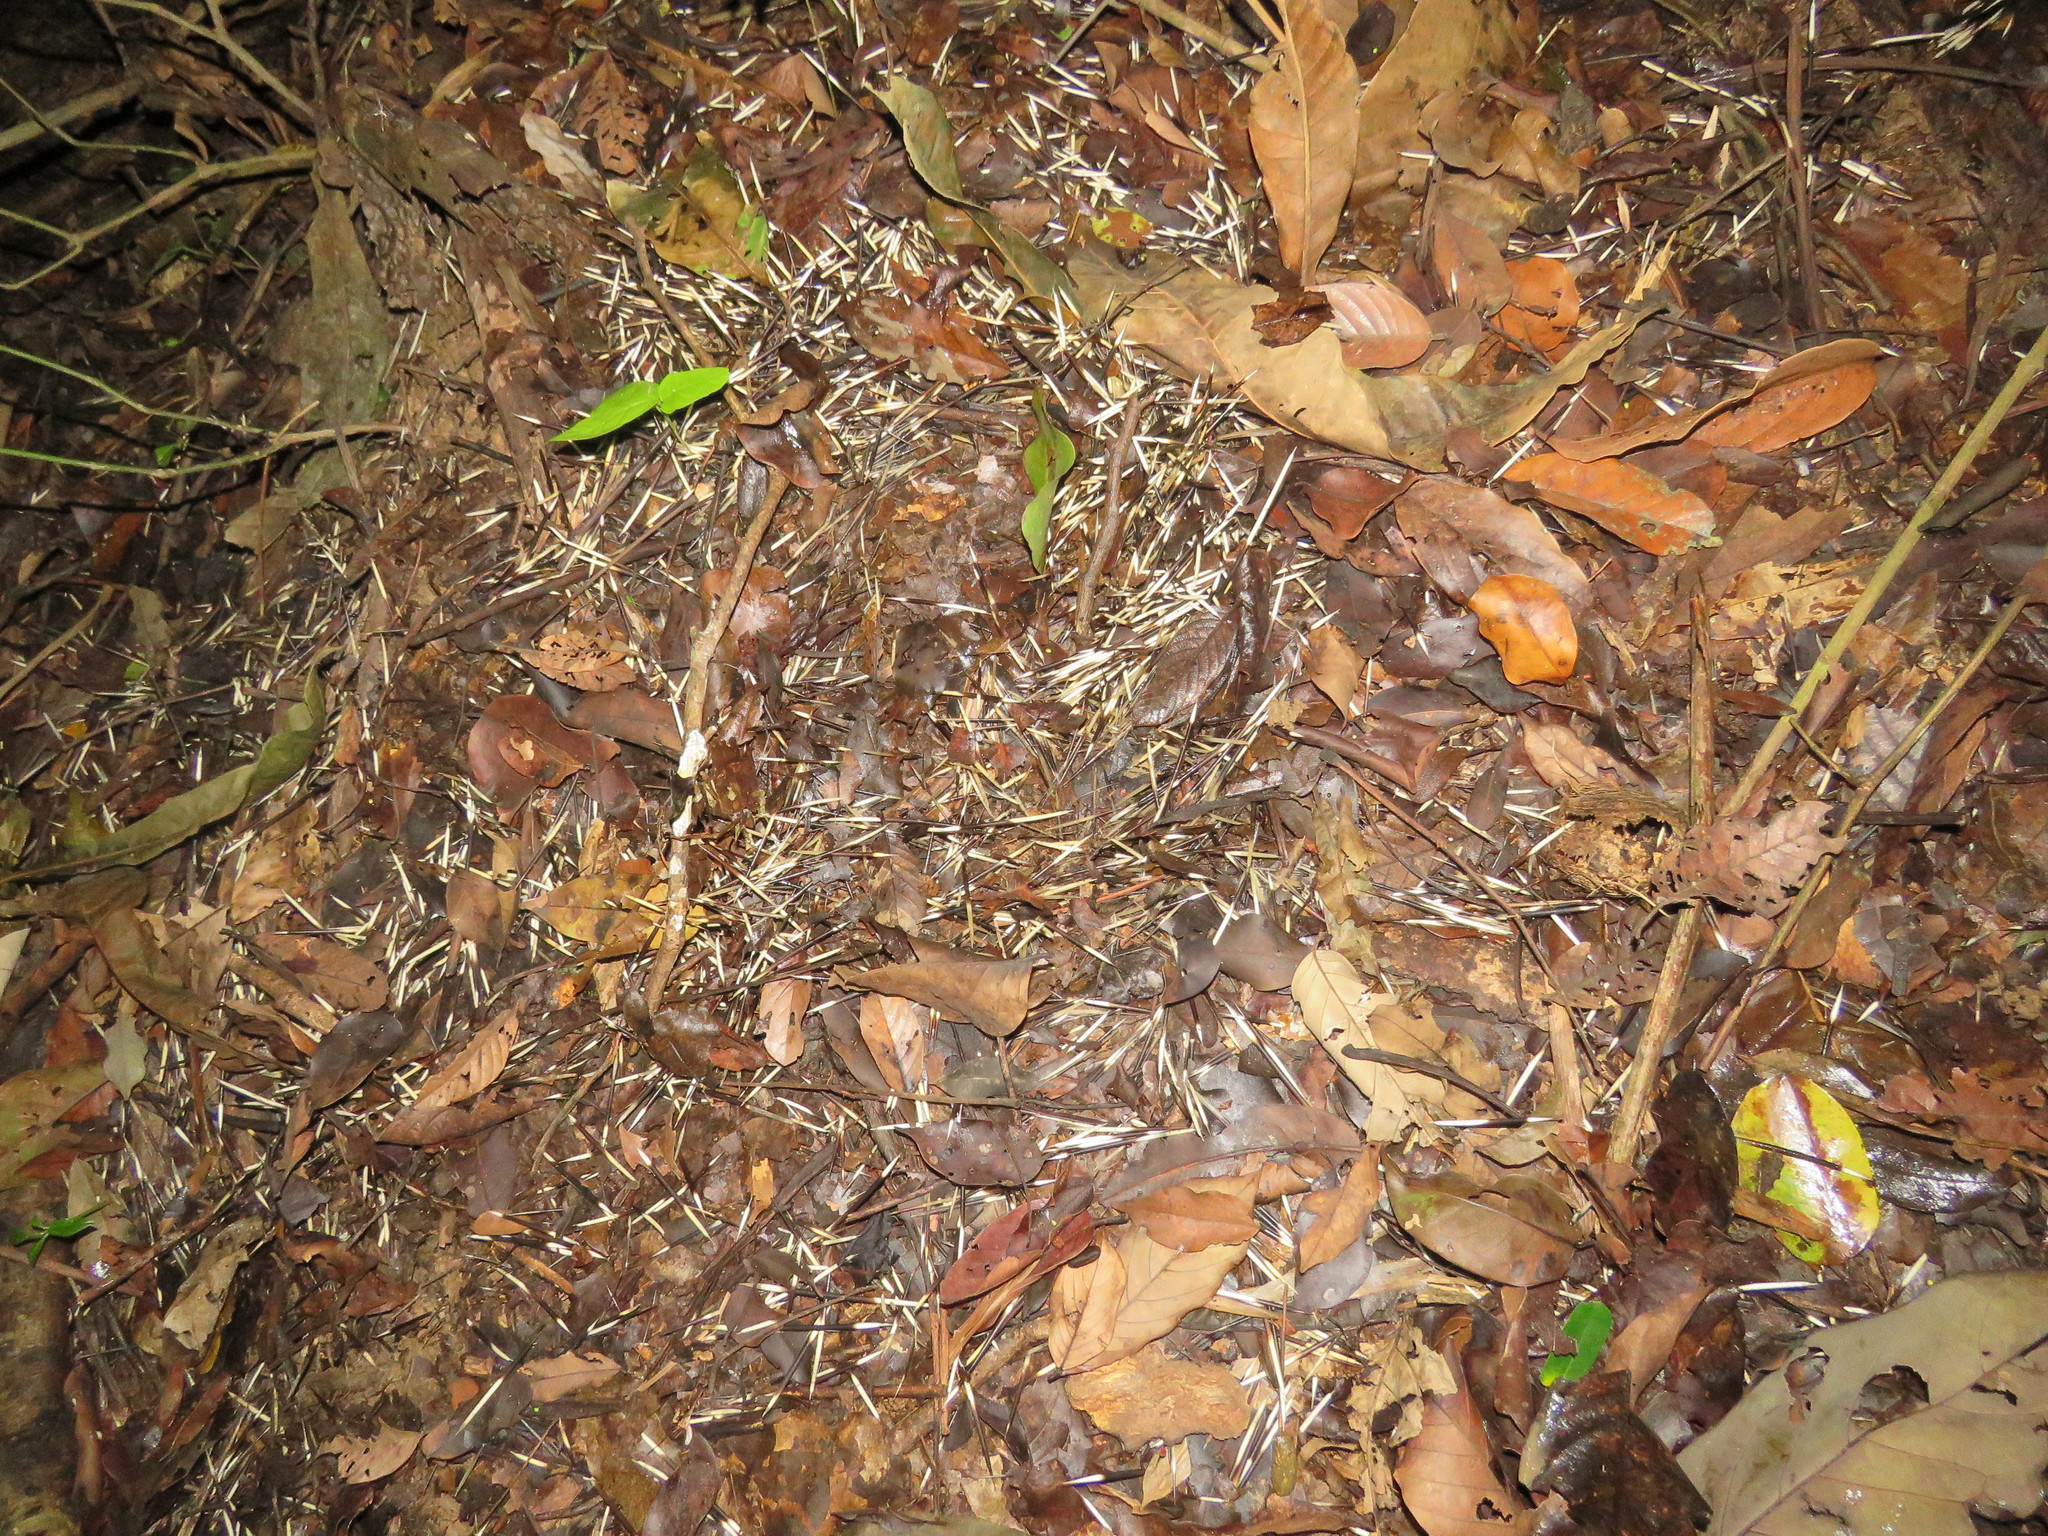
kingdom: Animalia
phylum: Chordata
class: Mammalia
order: Rodentia
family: Erethizontidae
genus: Coendou
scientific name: Coendou longicaudatus
